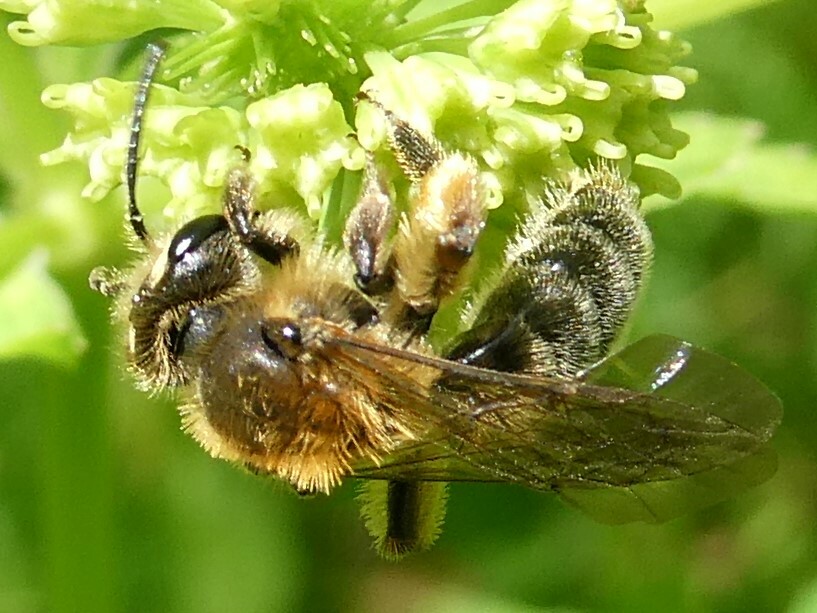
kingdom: Animalia
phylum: Arthropoda
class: Insecta
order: Hymenoptera
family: Andrenidae
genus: Andrena
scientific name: Andrena thaspii
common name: Parsnip miner bee
